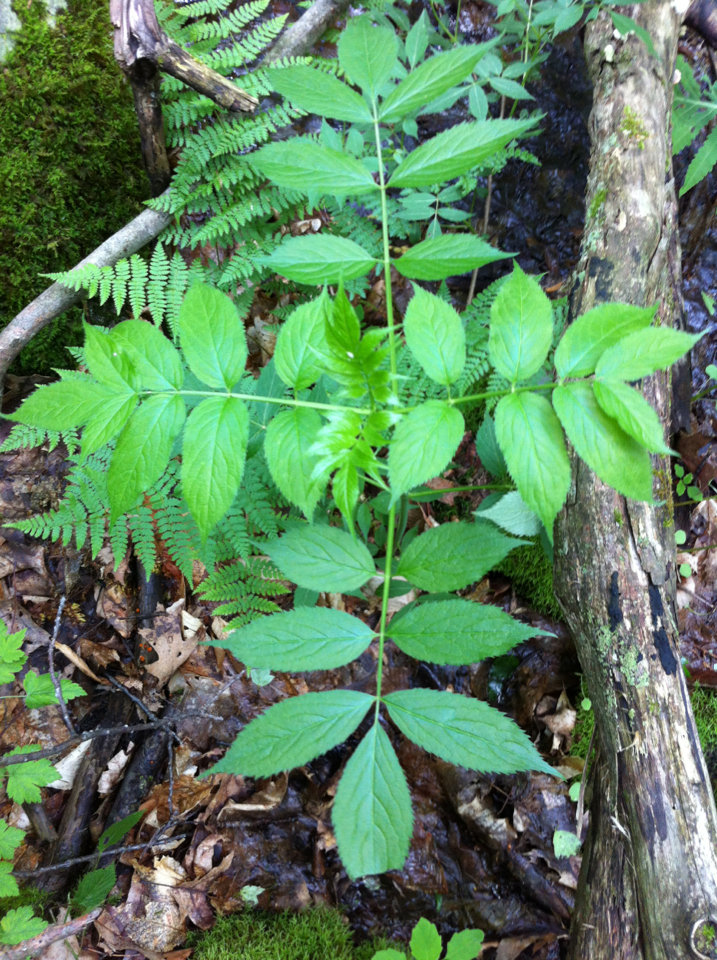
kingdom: Plantae
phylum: Tracheophyta
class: Magnoliopsida
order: Dipsacales
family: Viburnaceae
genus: Sambucus
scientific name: Sambucus racemosa
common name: Red-berried elder
